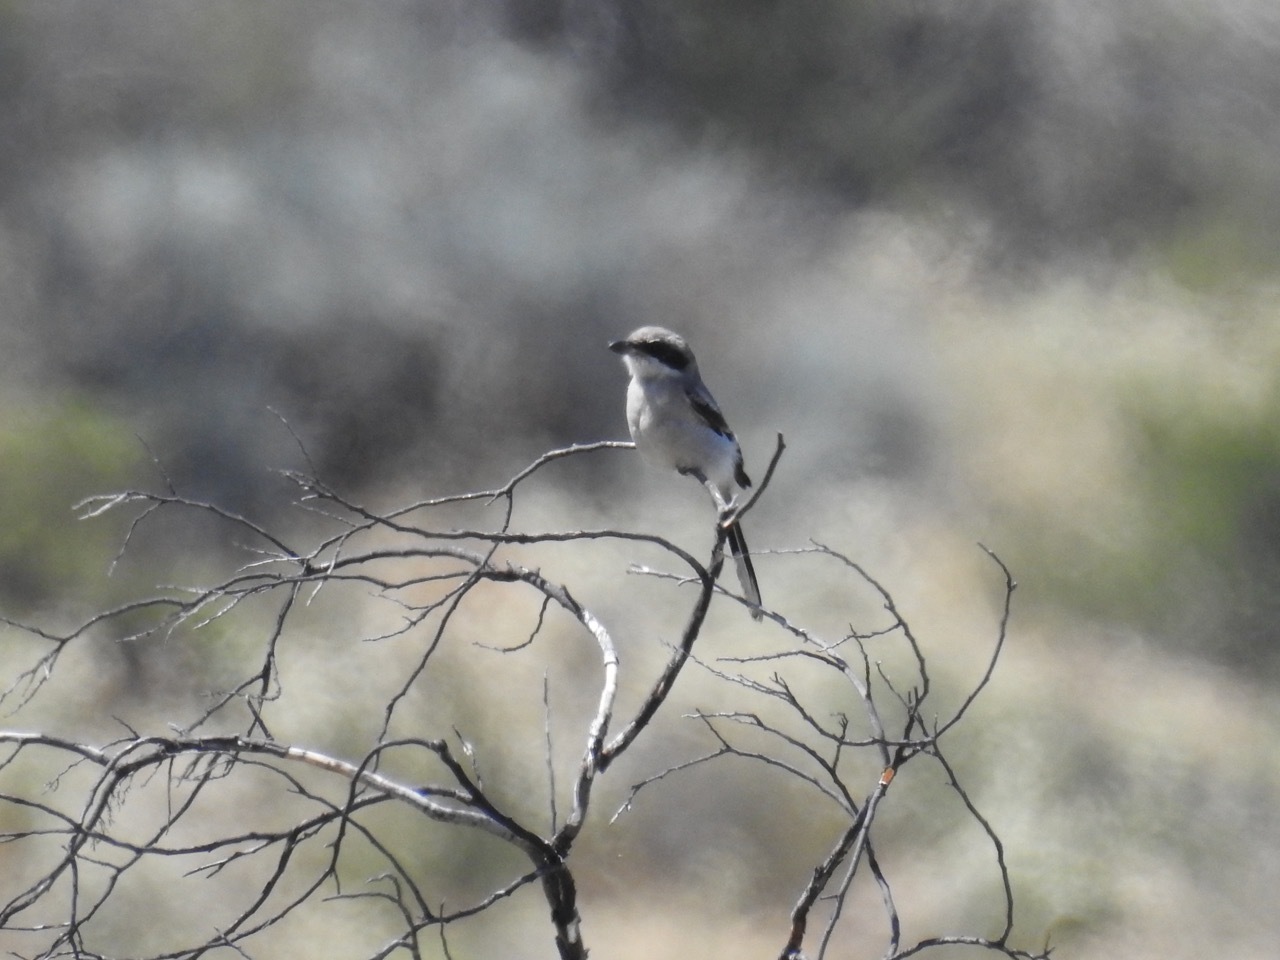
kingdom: Animalia
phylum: Chordata
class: Aves
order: Passeriformes
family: Laniidae
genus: Lanius
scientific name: Lanius ludovicianus
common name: Loggerhead shrike
